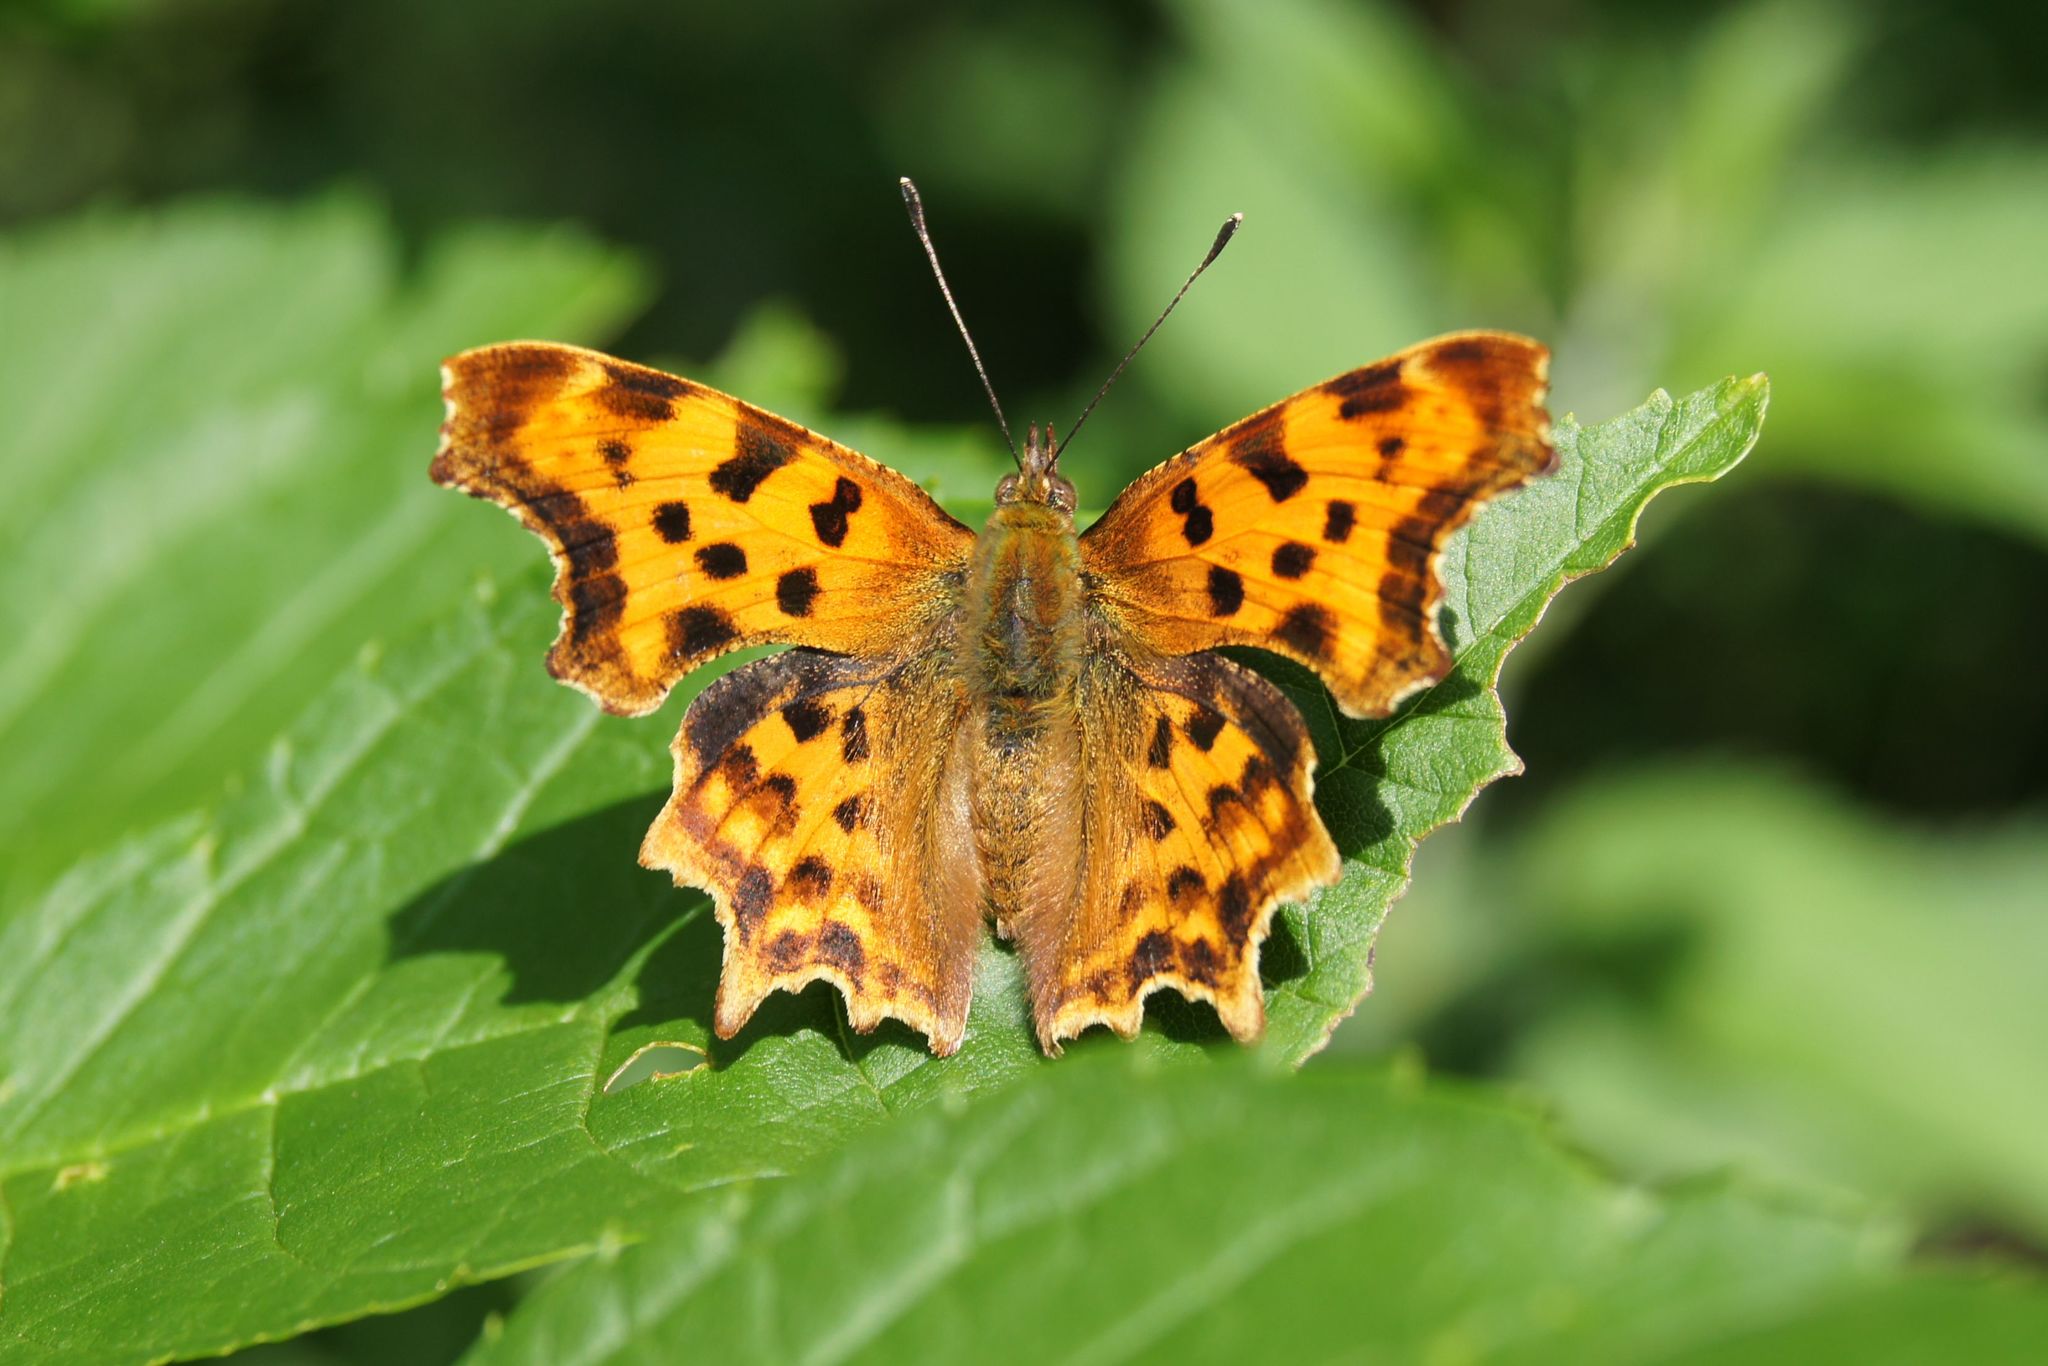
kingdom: Animalia
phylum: Arthropoda
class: Insecta
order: Lepidoptera
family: Nymphalidae
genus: Polygonia
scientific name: Polygonia c-album
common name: Comma
